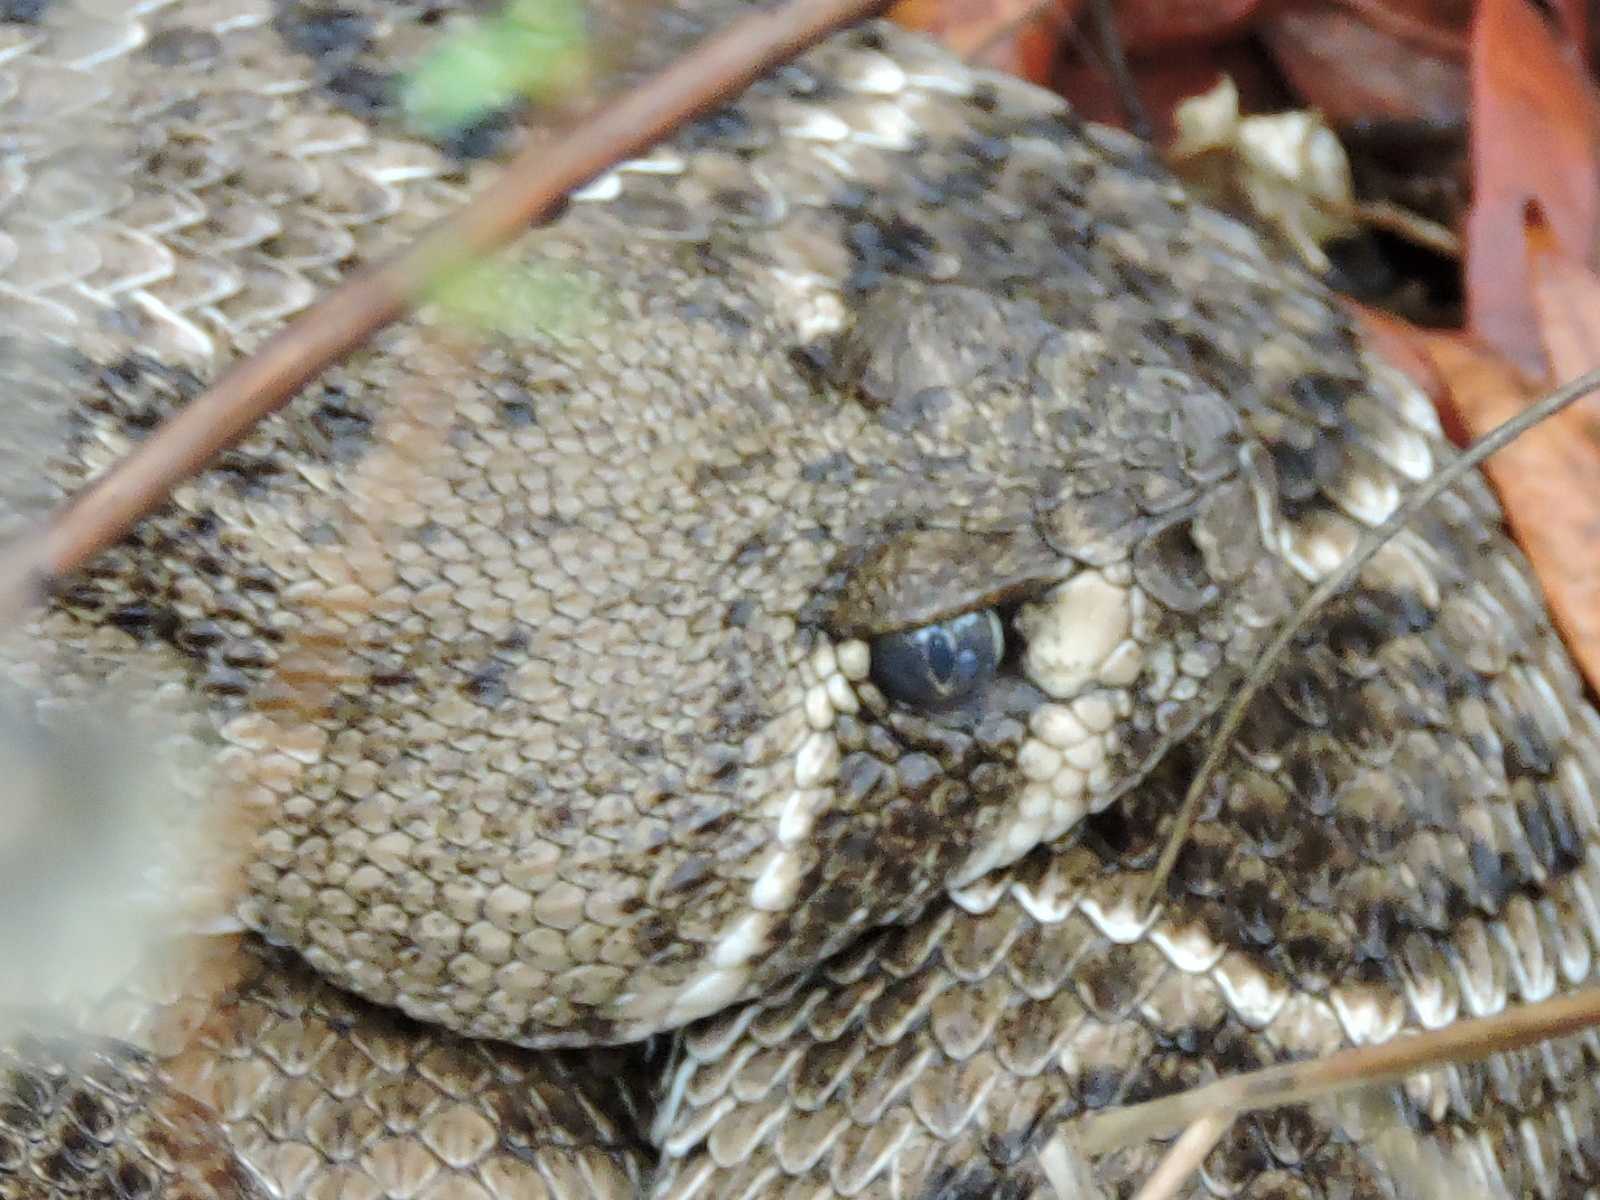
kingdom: Animalia
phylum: Chordata
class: Squamata
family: Viperidae
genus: Crotalus
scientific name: Crotalus atrox
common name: Western diamond-backed rattlesnake
